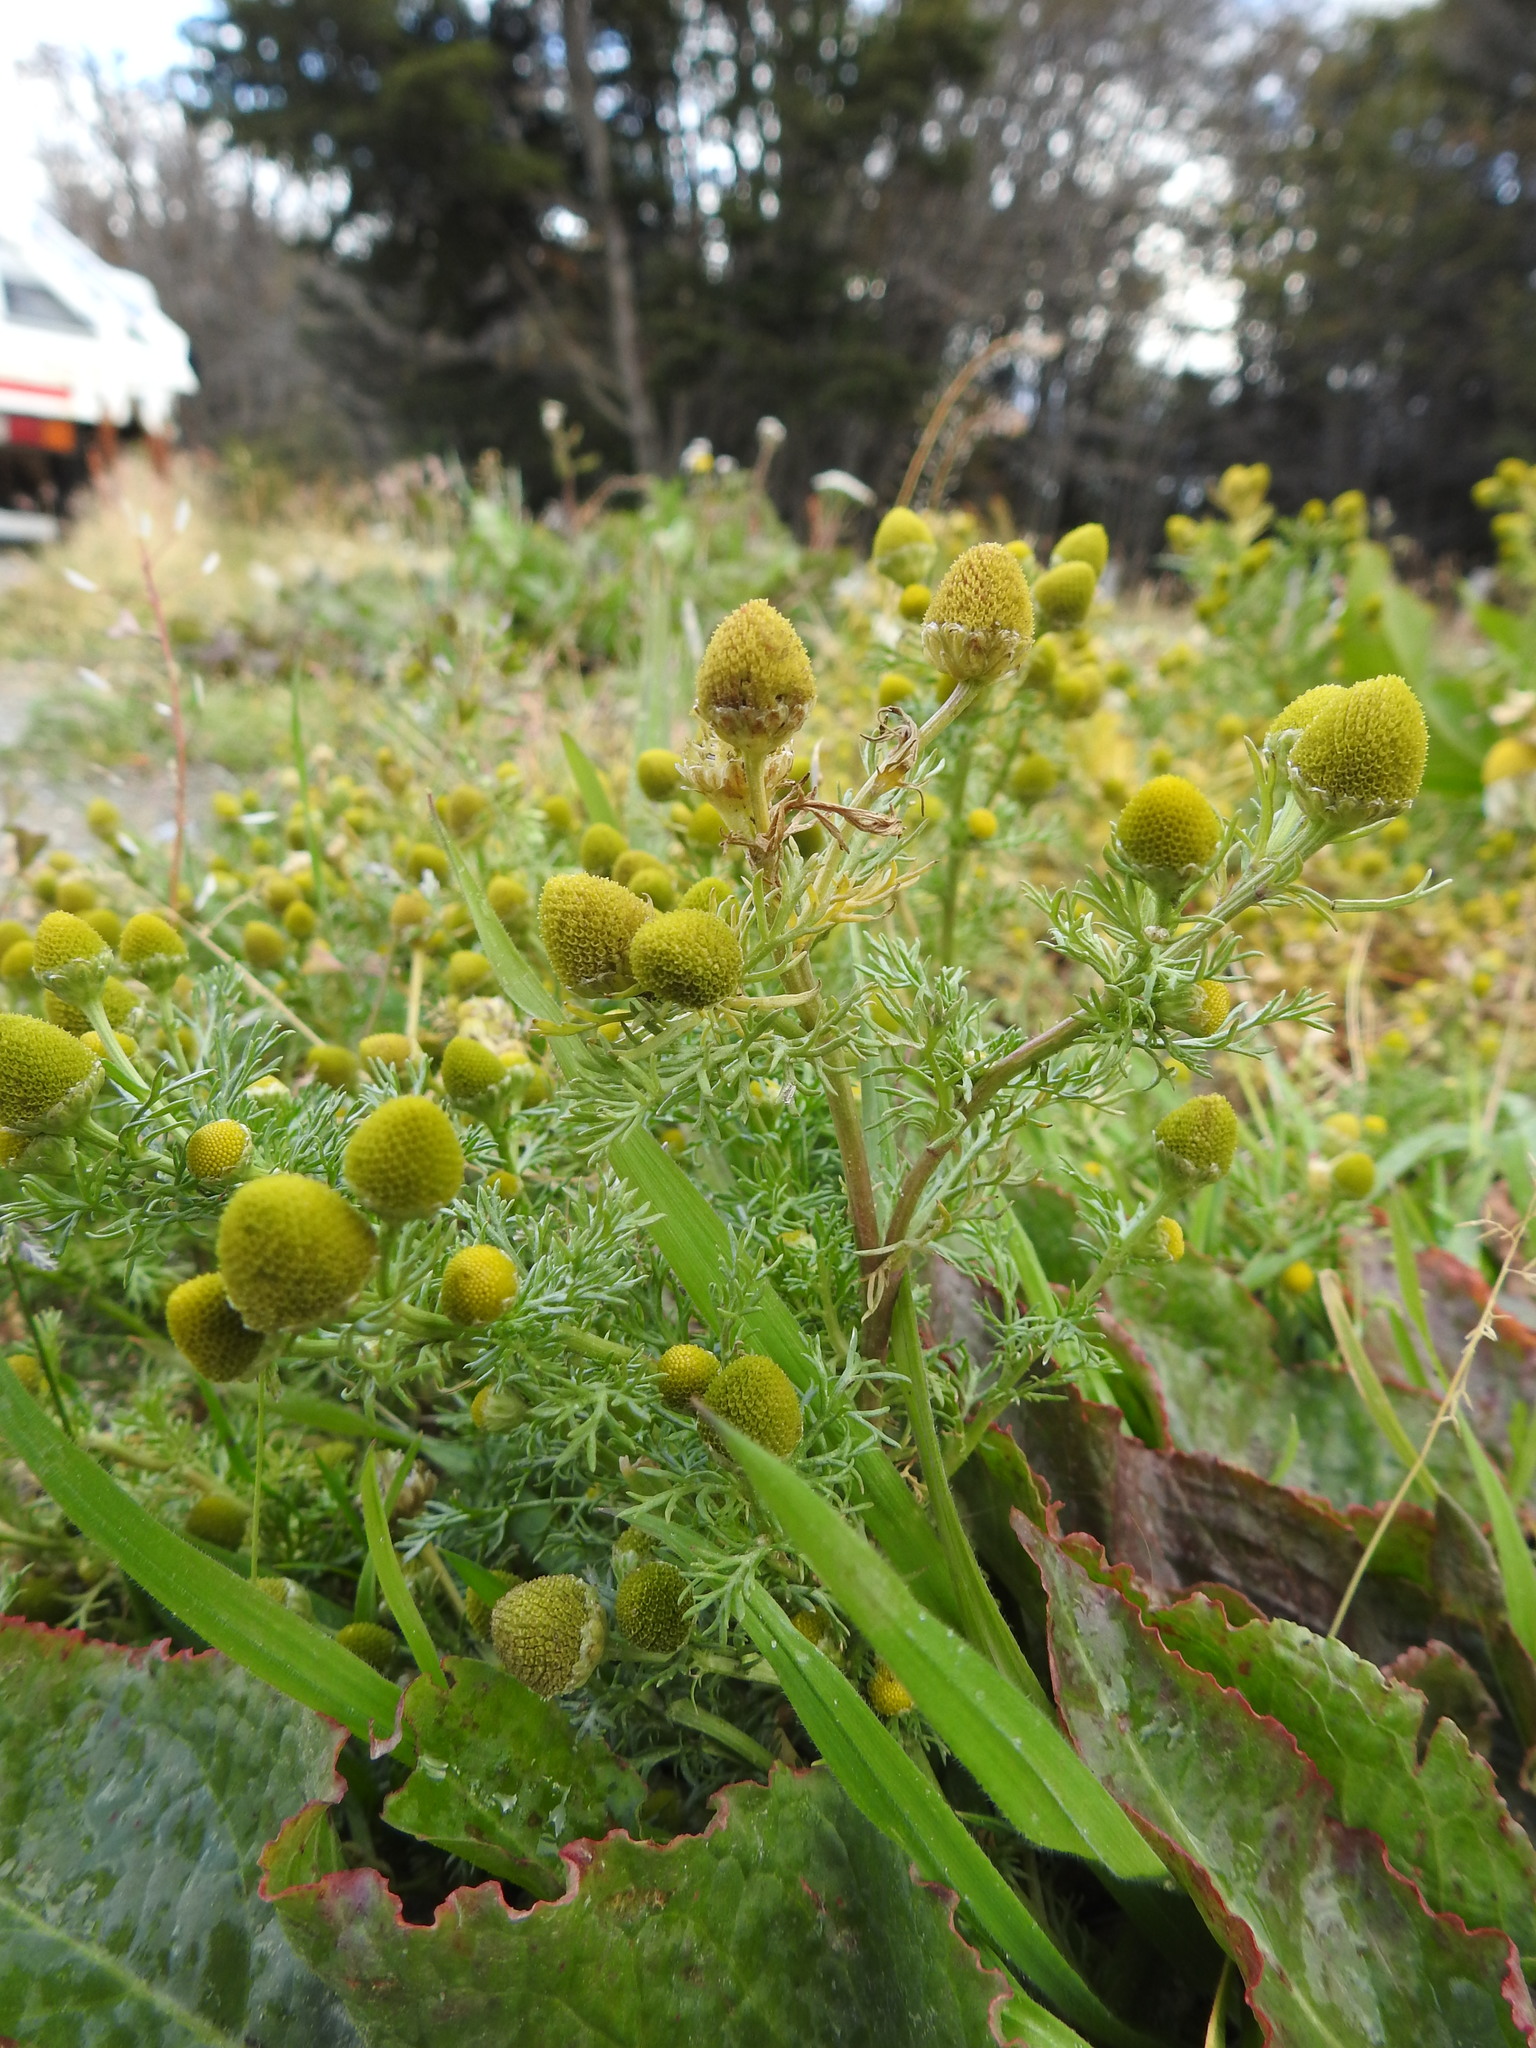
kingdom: Plantae
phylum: Tracheophyta
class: Magnoliopsida
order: Asterales
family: Asteraceae
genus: Matricaria
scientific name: Matricaria discoidea
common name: Disc mayweed
